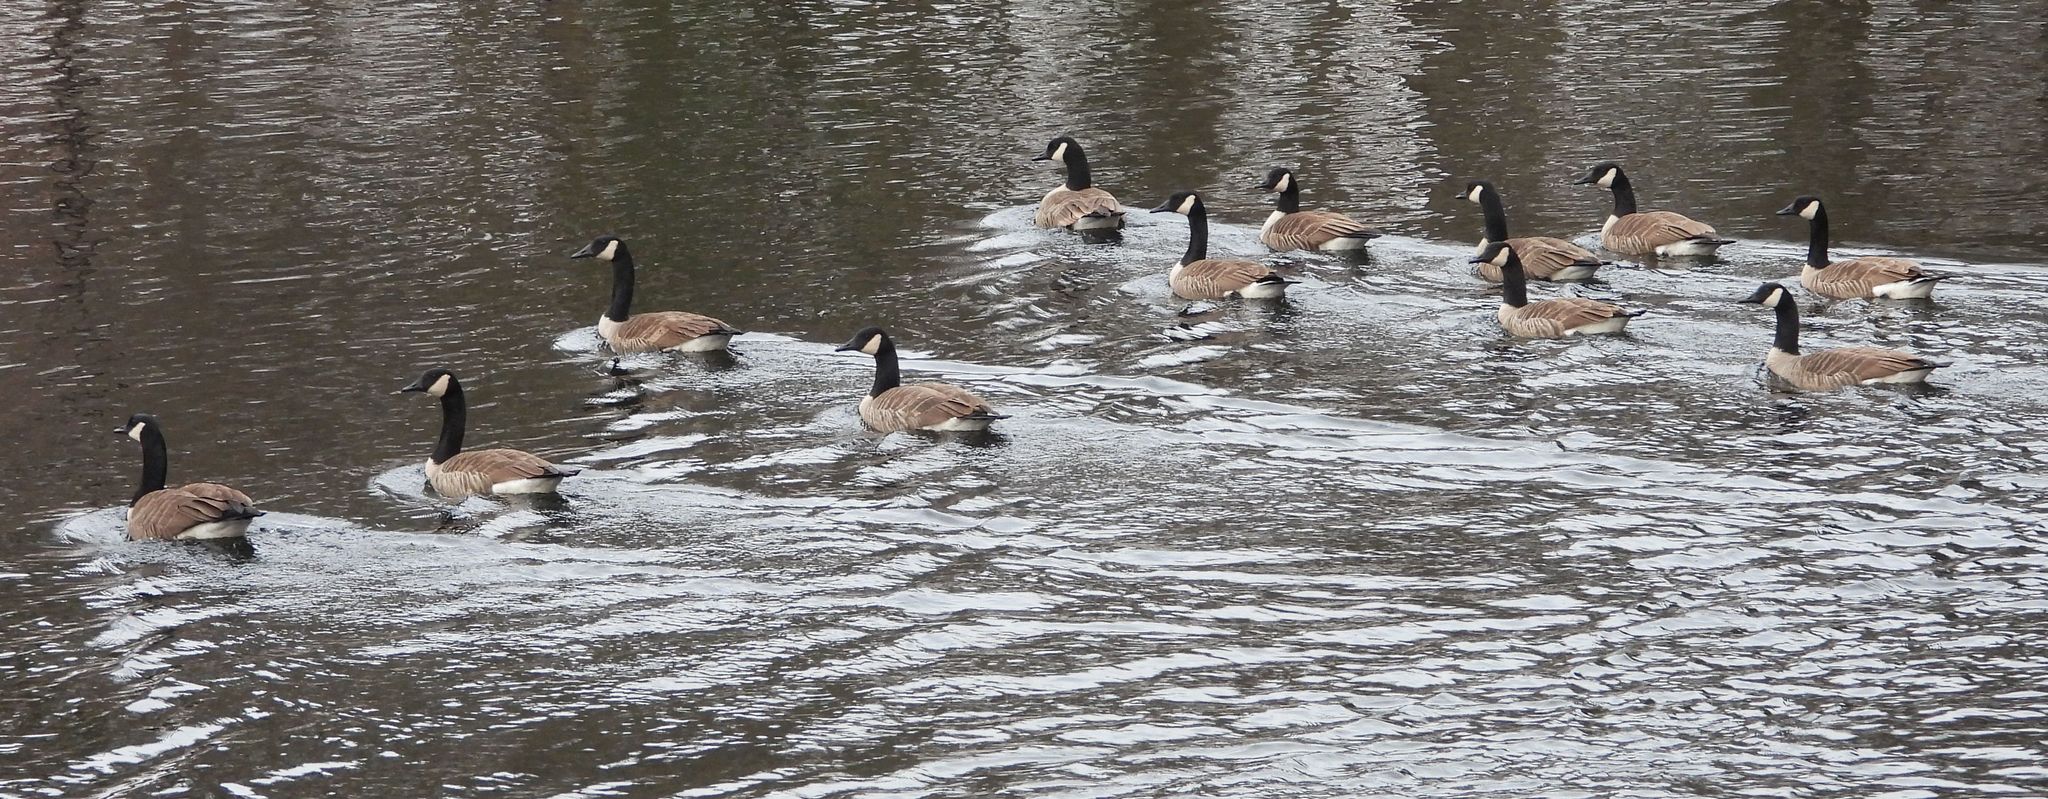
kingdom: Animalia
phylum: Chordata
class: Aves
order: Anseriformes
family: Anatidae
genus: Branta
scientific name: Branta canadensis
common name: Canada goose
